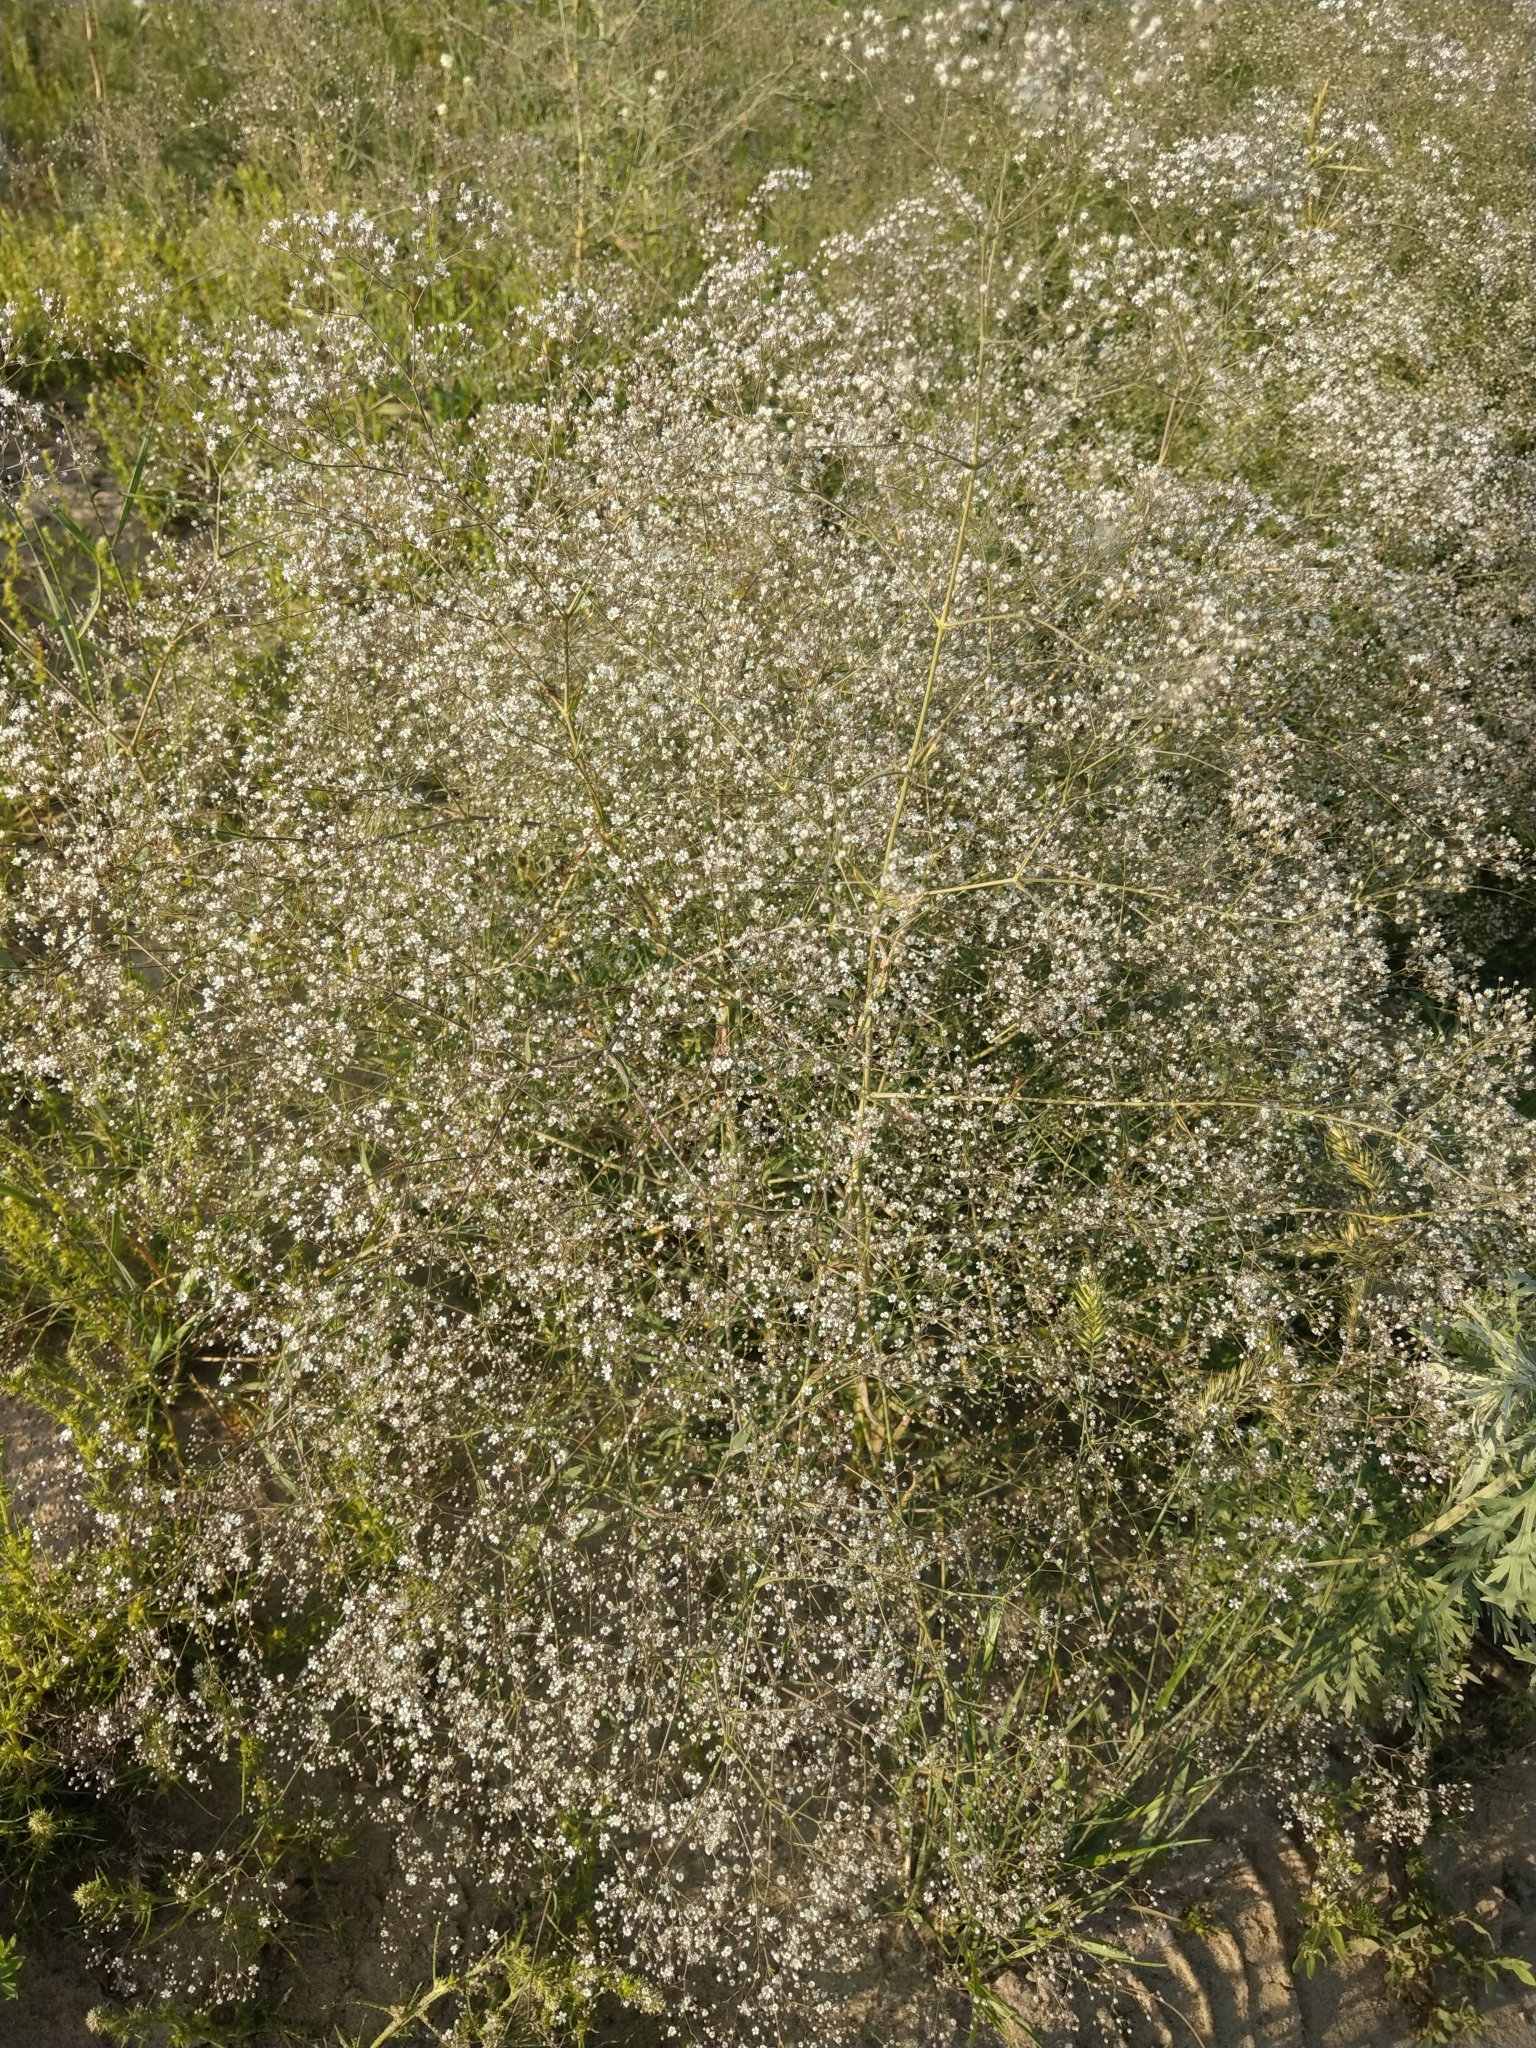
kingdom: Plantae
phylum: Tracheophyta
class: Magnoliopsida
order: Caryophyllales
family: Caryophyllaceae
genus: Gypsophila
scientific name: Gypsophila paniculata
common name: Baby's-breath
